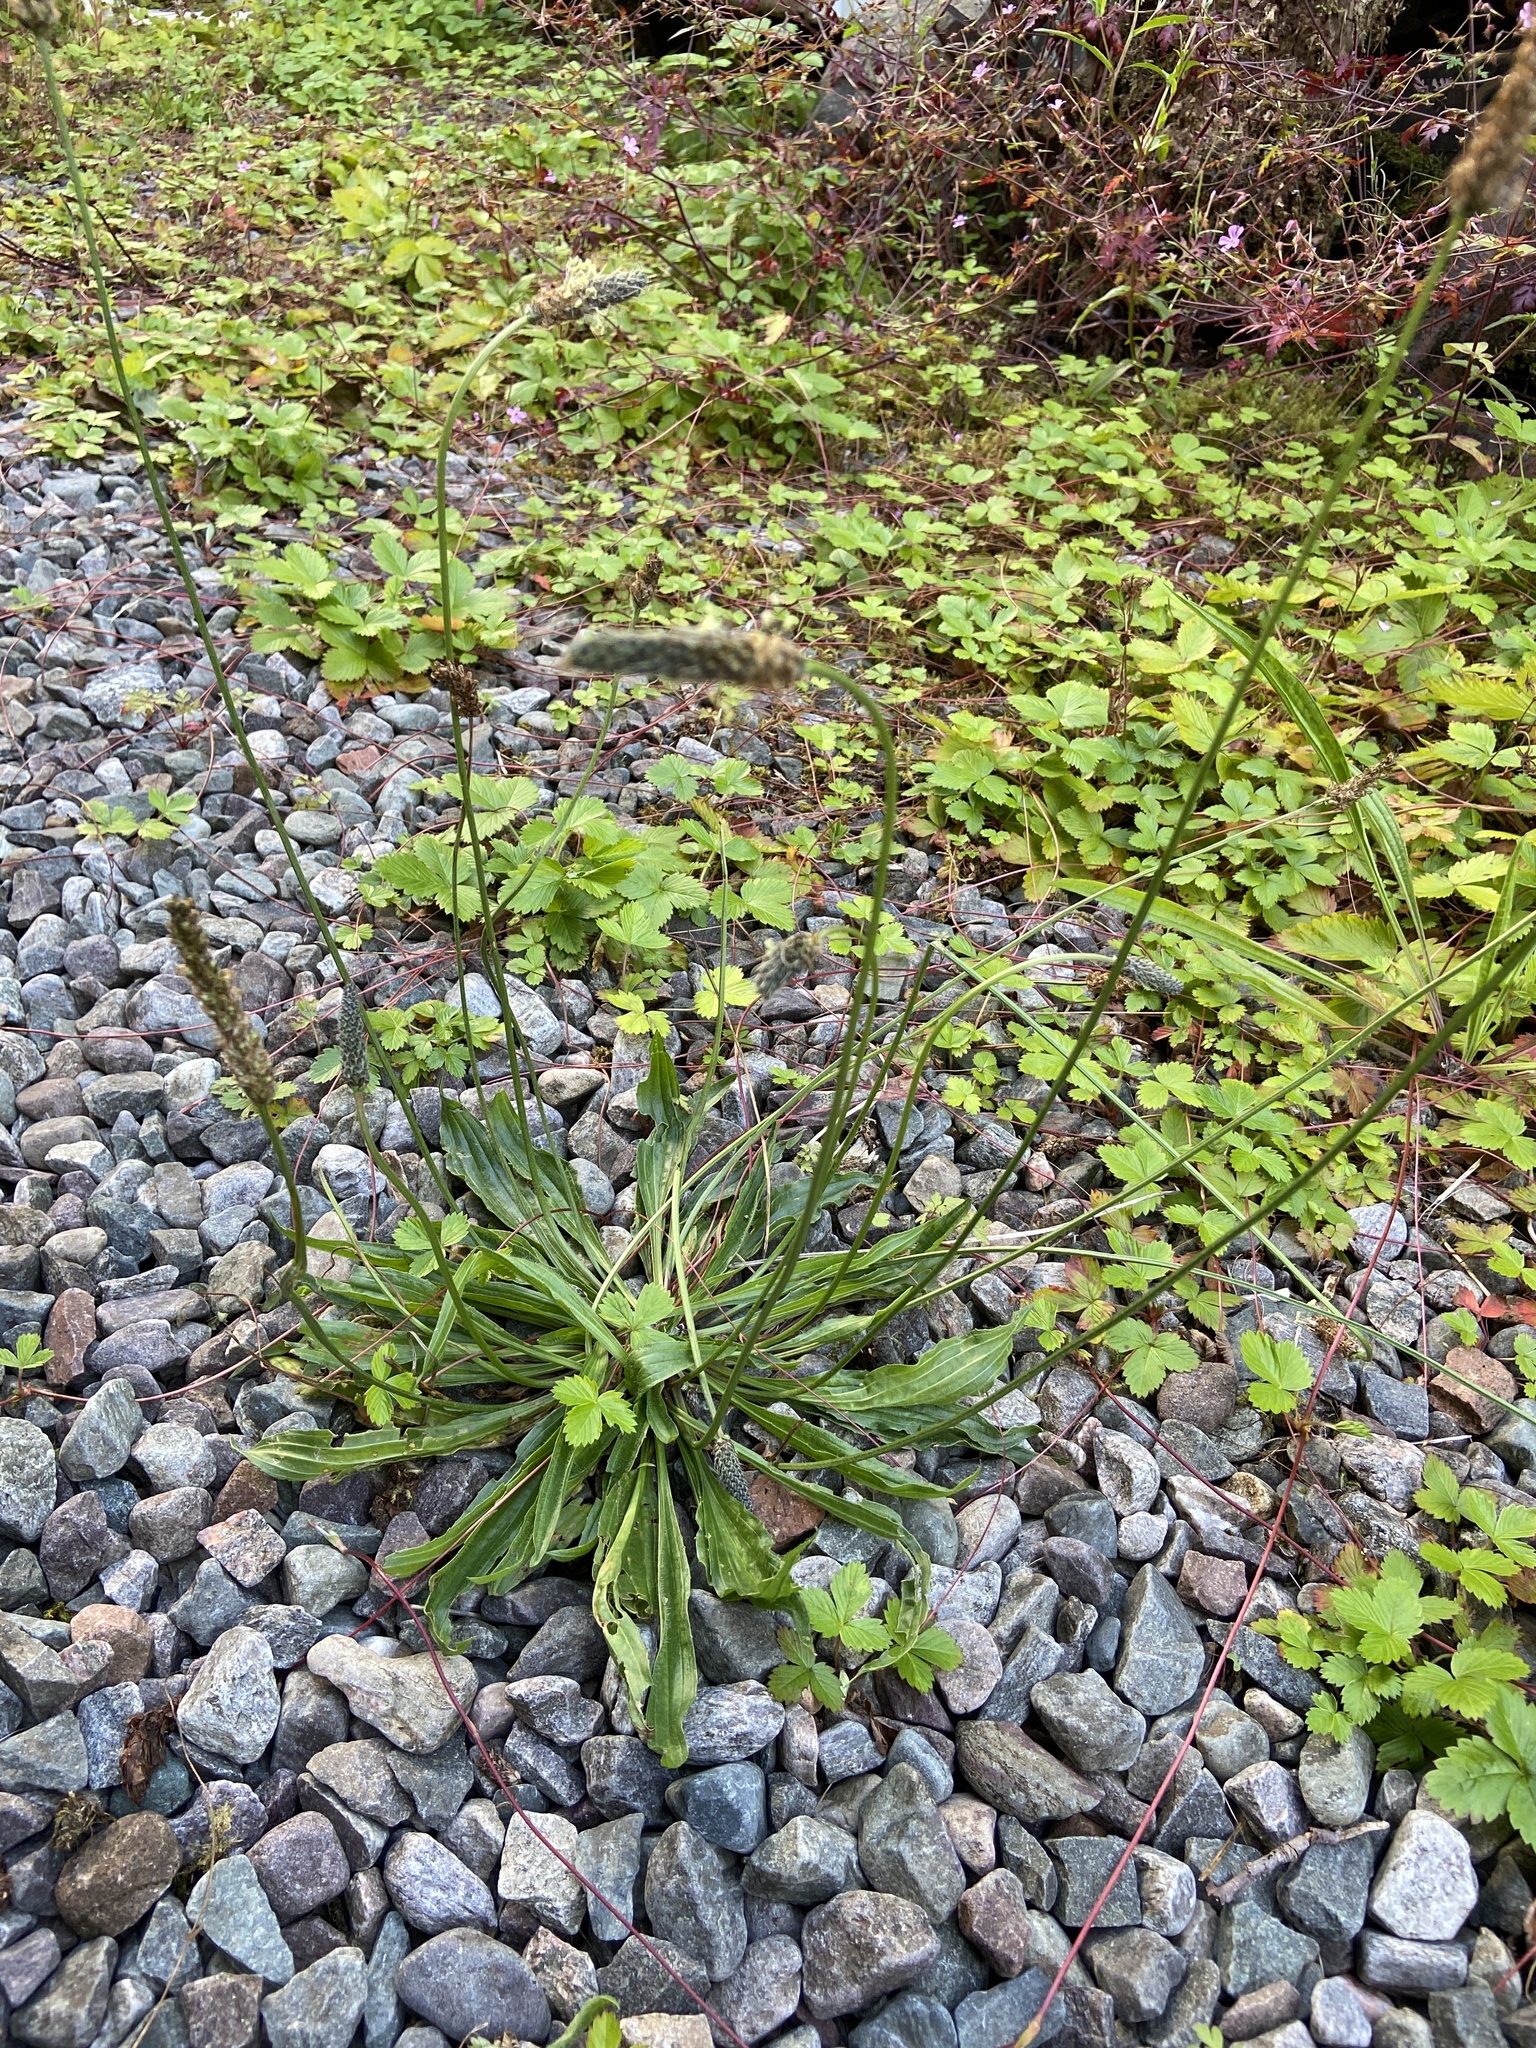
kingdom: Plantae
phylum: Tracheophyta
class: Magnoliopsida
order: Lamiales
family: Plantaginaceae
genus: Plantago
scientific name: Plantago lanceolata
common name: Ribwort plantain
